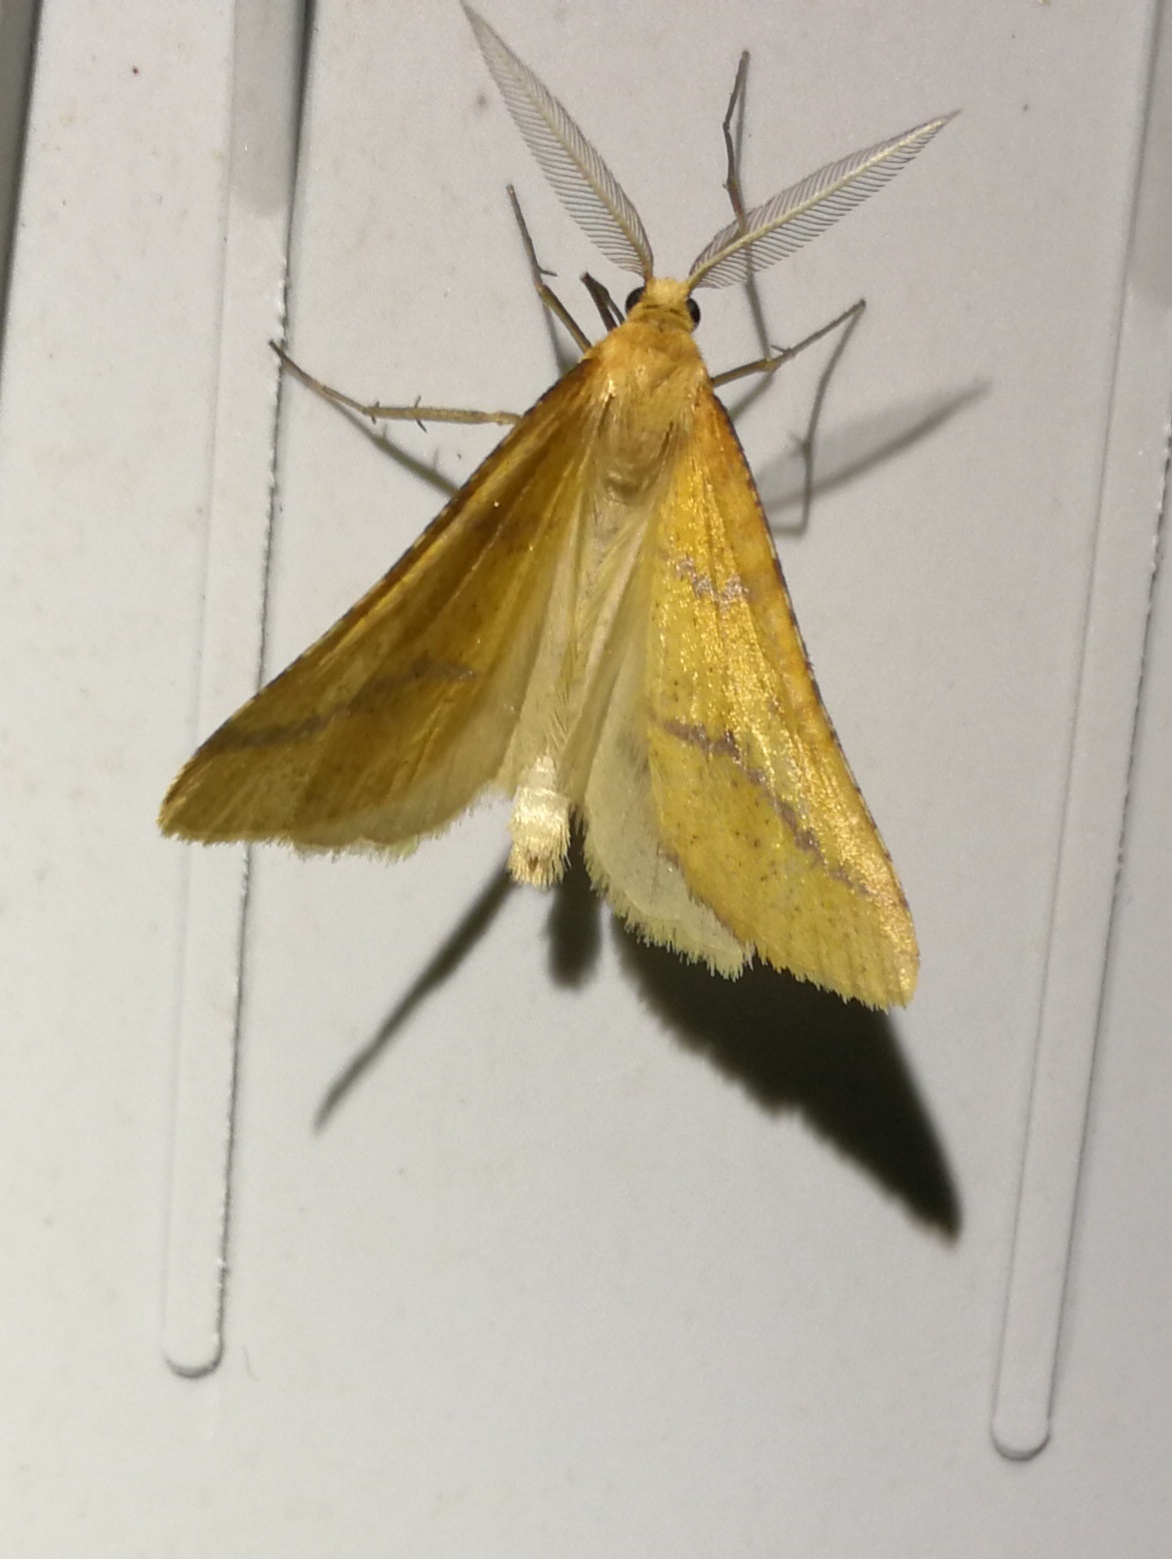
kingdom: Animalia
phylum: Arthropoda
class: Insecta
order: Lepidoptera
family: Geometridae
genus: Aspitates
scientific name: Aspitates ochrearia
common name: Yellow belle
